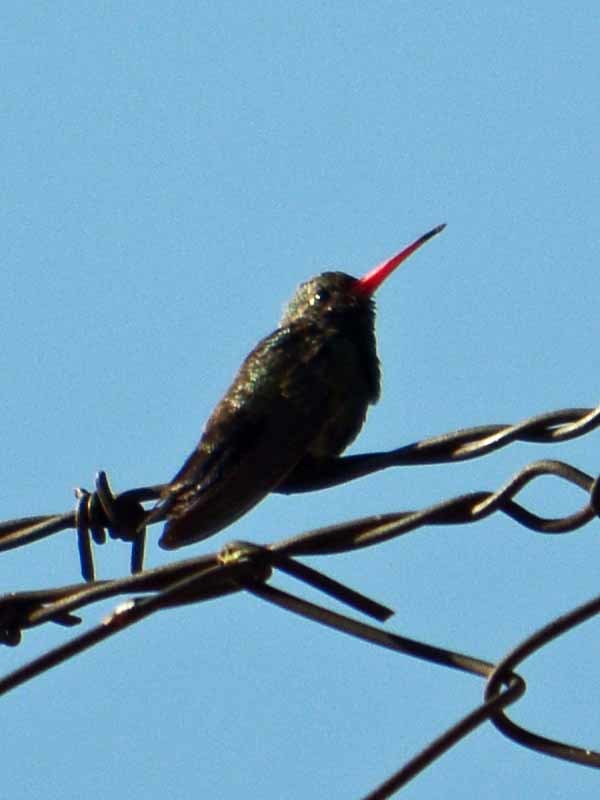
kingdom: Animalia
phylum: Chordata
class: Aves
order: Apodiformes
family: Trochilidae
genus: Cynanthus
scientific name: Cynanthus latirostris
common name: Broad-billed hummingbird
